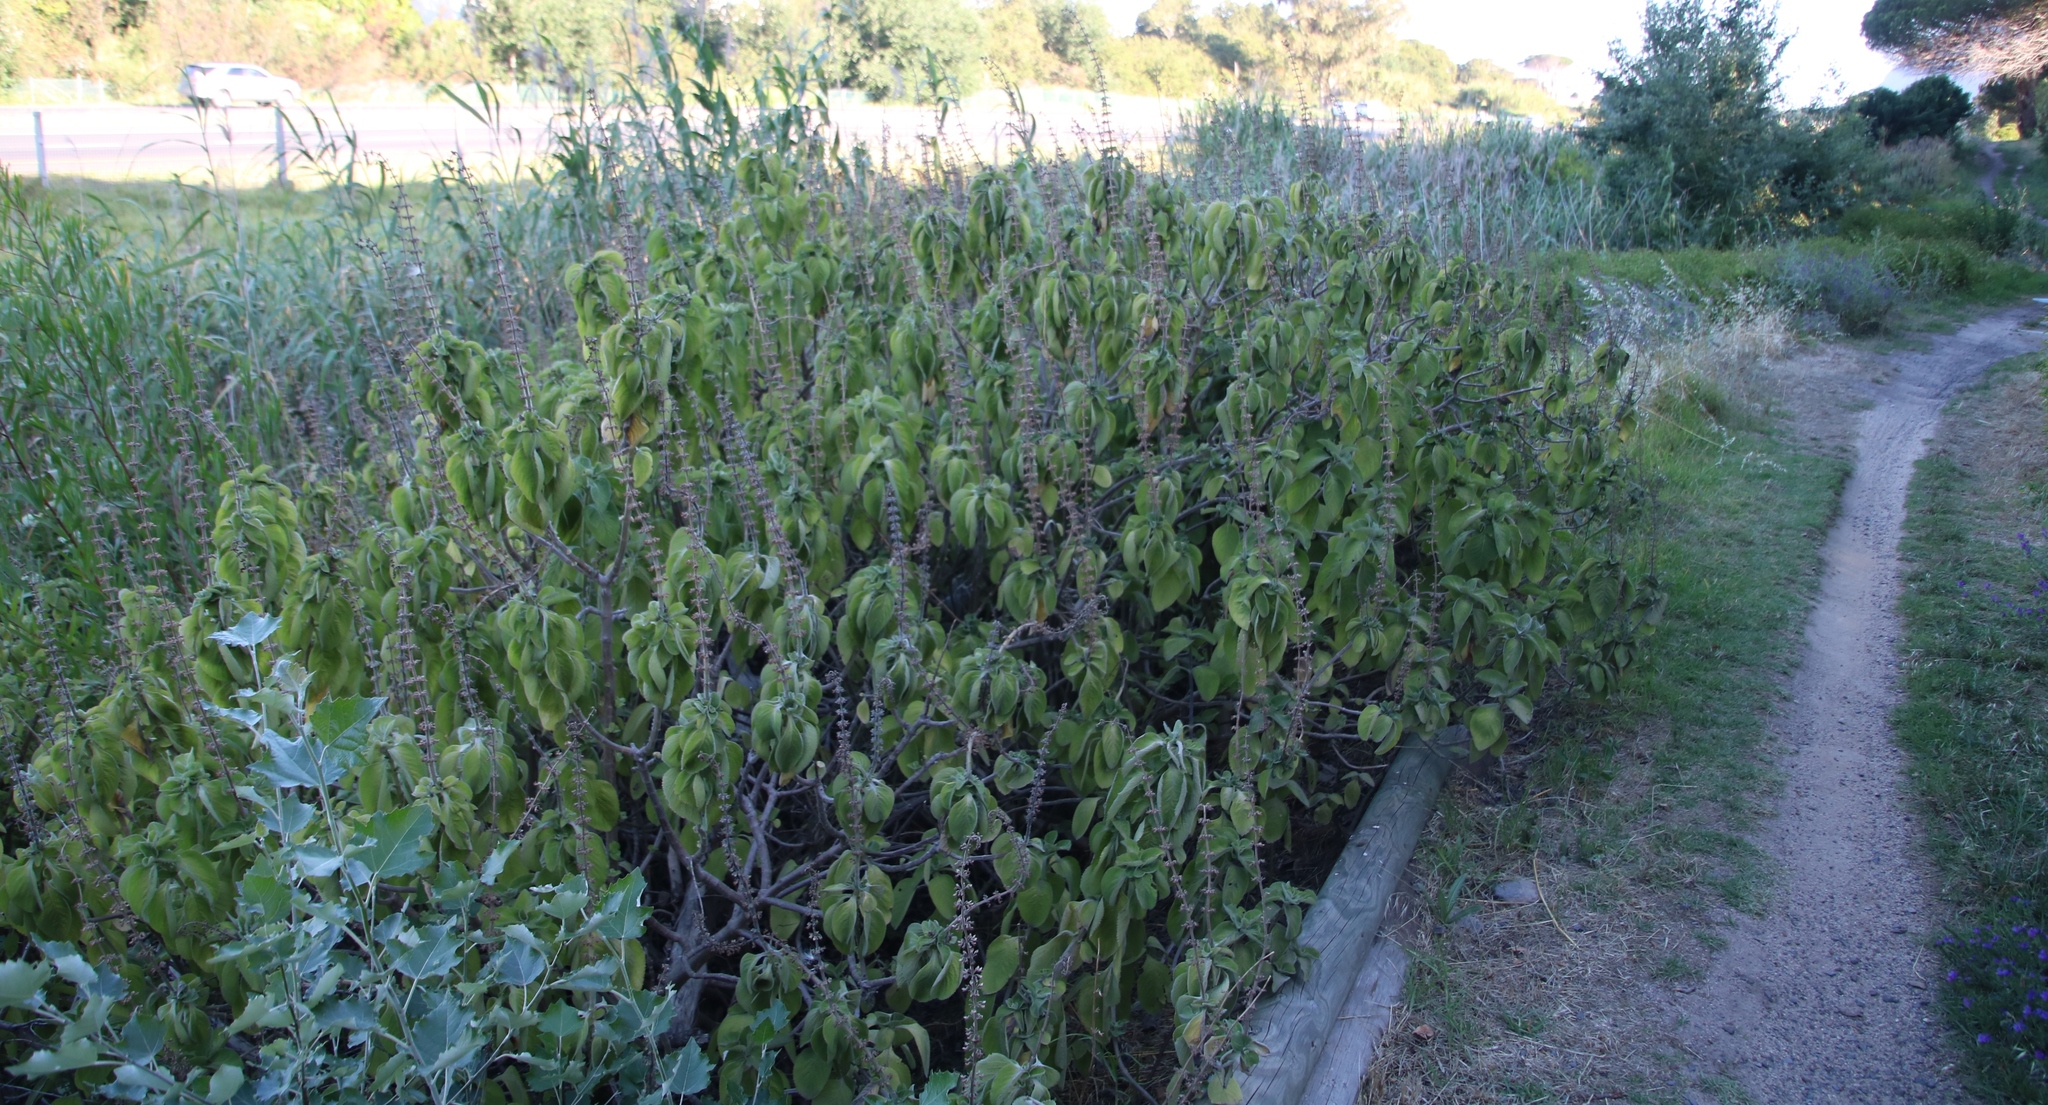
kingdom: Plantae
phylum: Tracheophyta
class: Magnoliopsida
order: Lamiales
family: Lamiaceae
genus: Coleus
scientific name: Coleus barbatus
